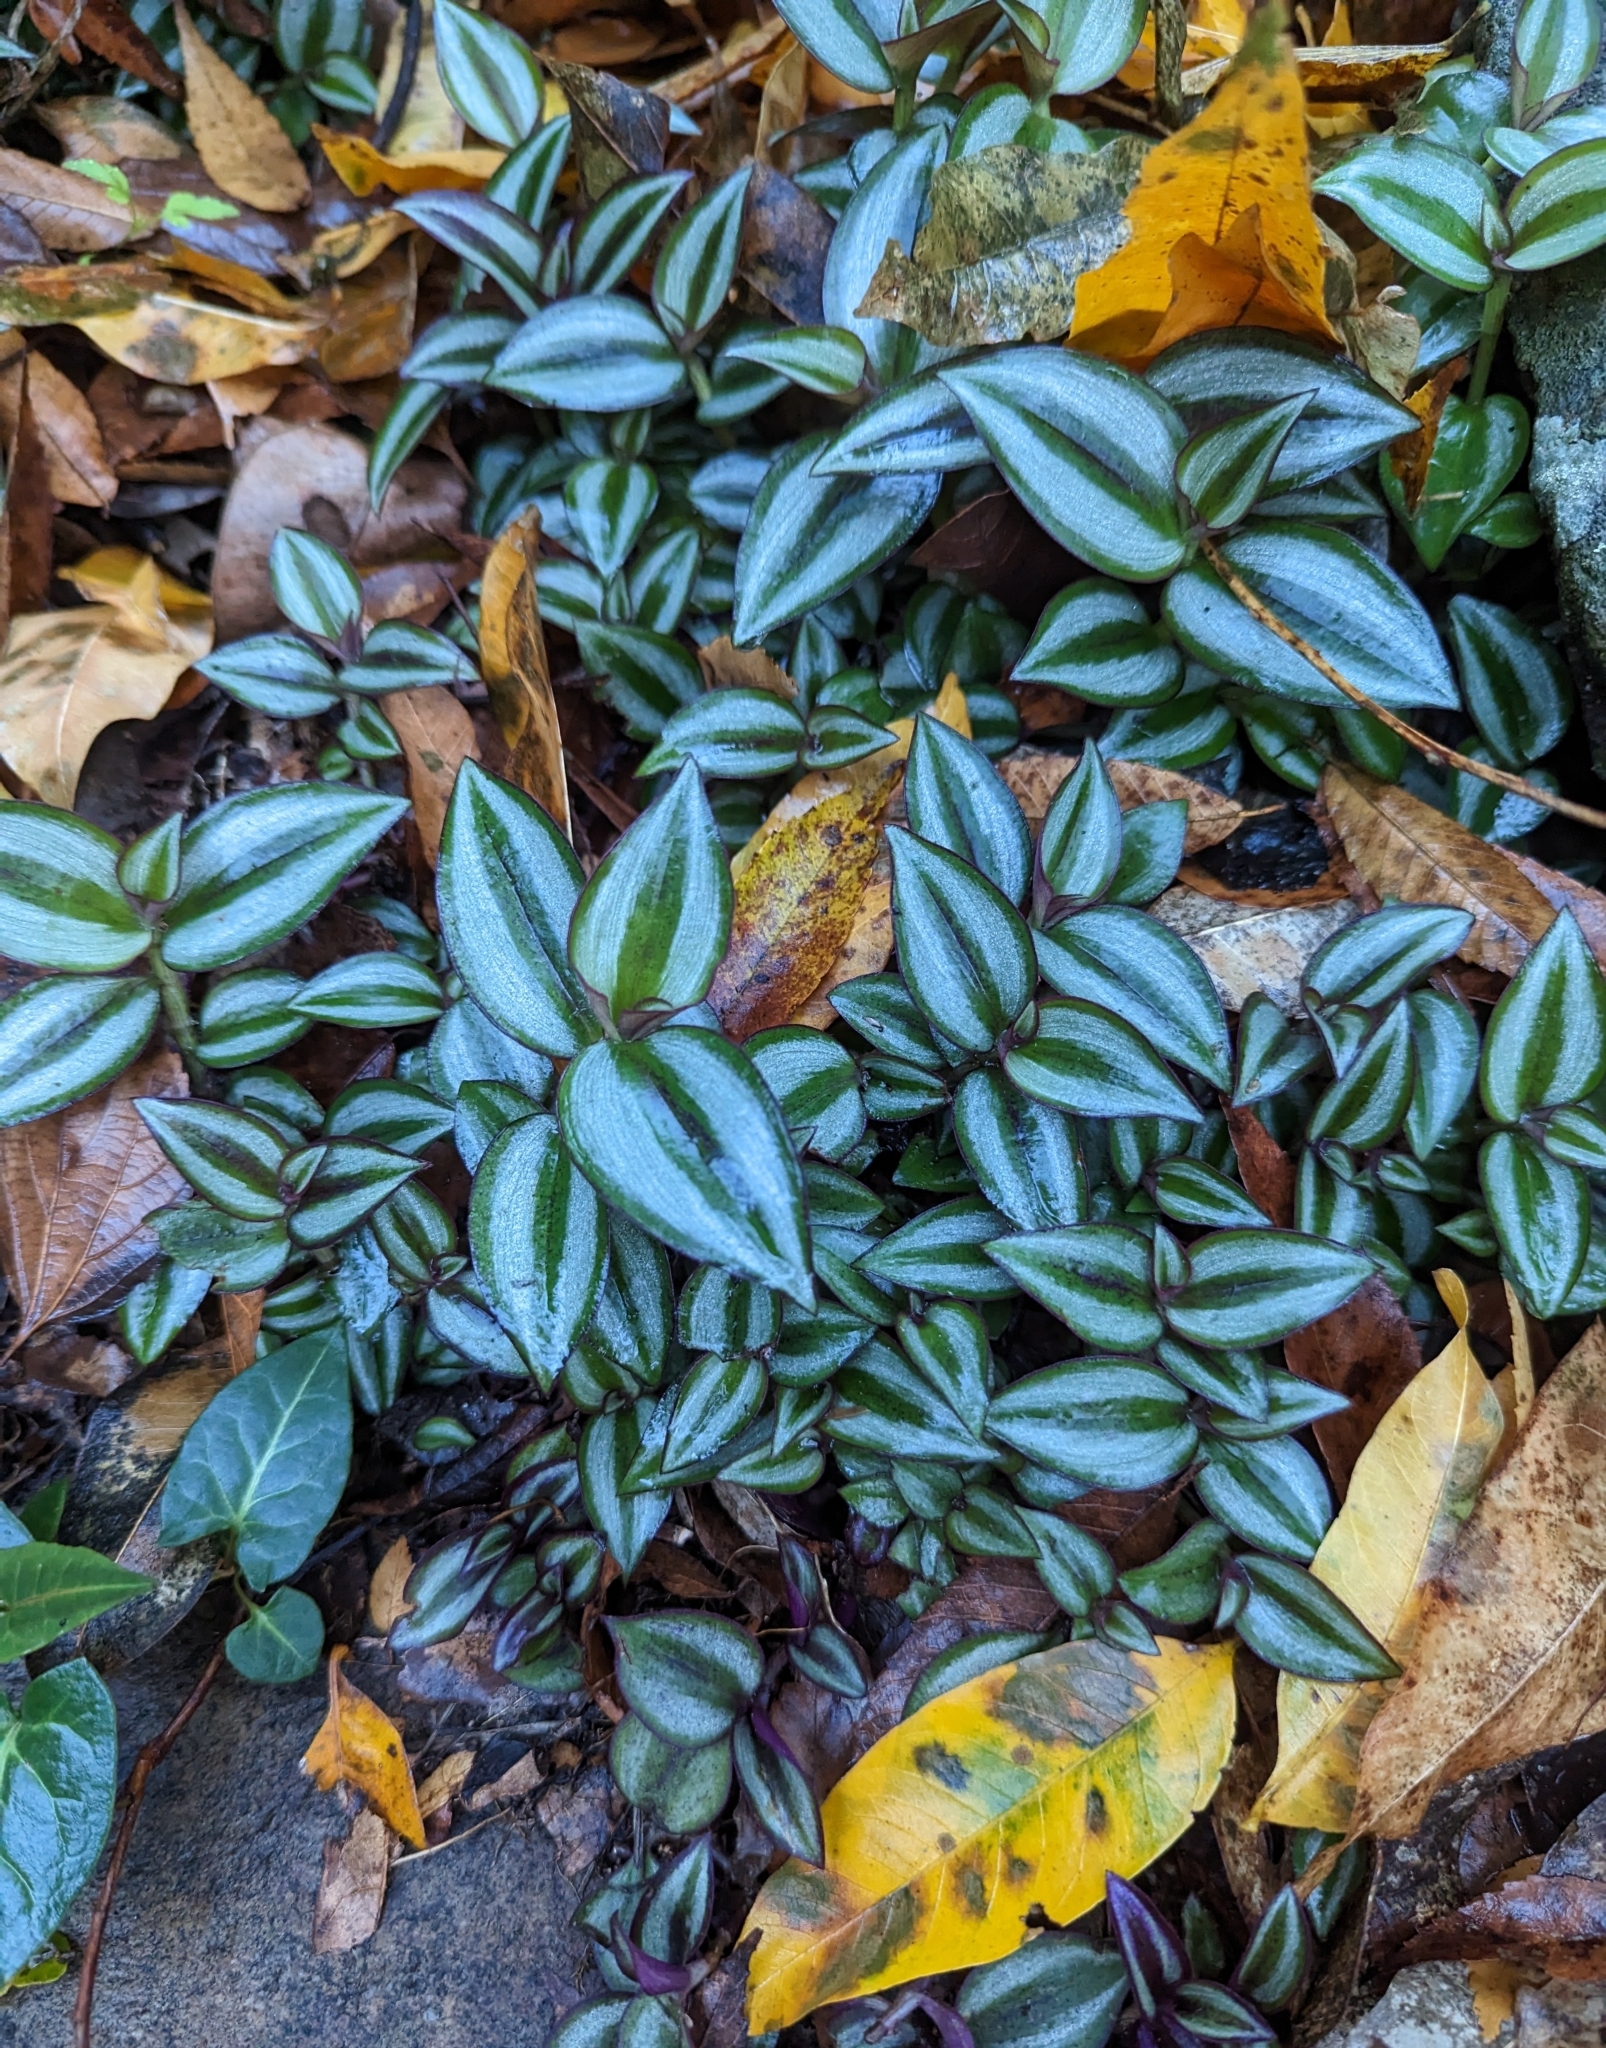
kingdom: Plantae
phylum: Tracheophyta
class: Liliopsida
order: Commelinales
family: Commelinaceae
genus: Tradescantia
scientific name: Tradescantia zebrina
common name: Inchplant
